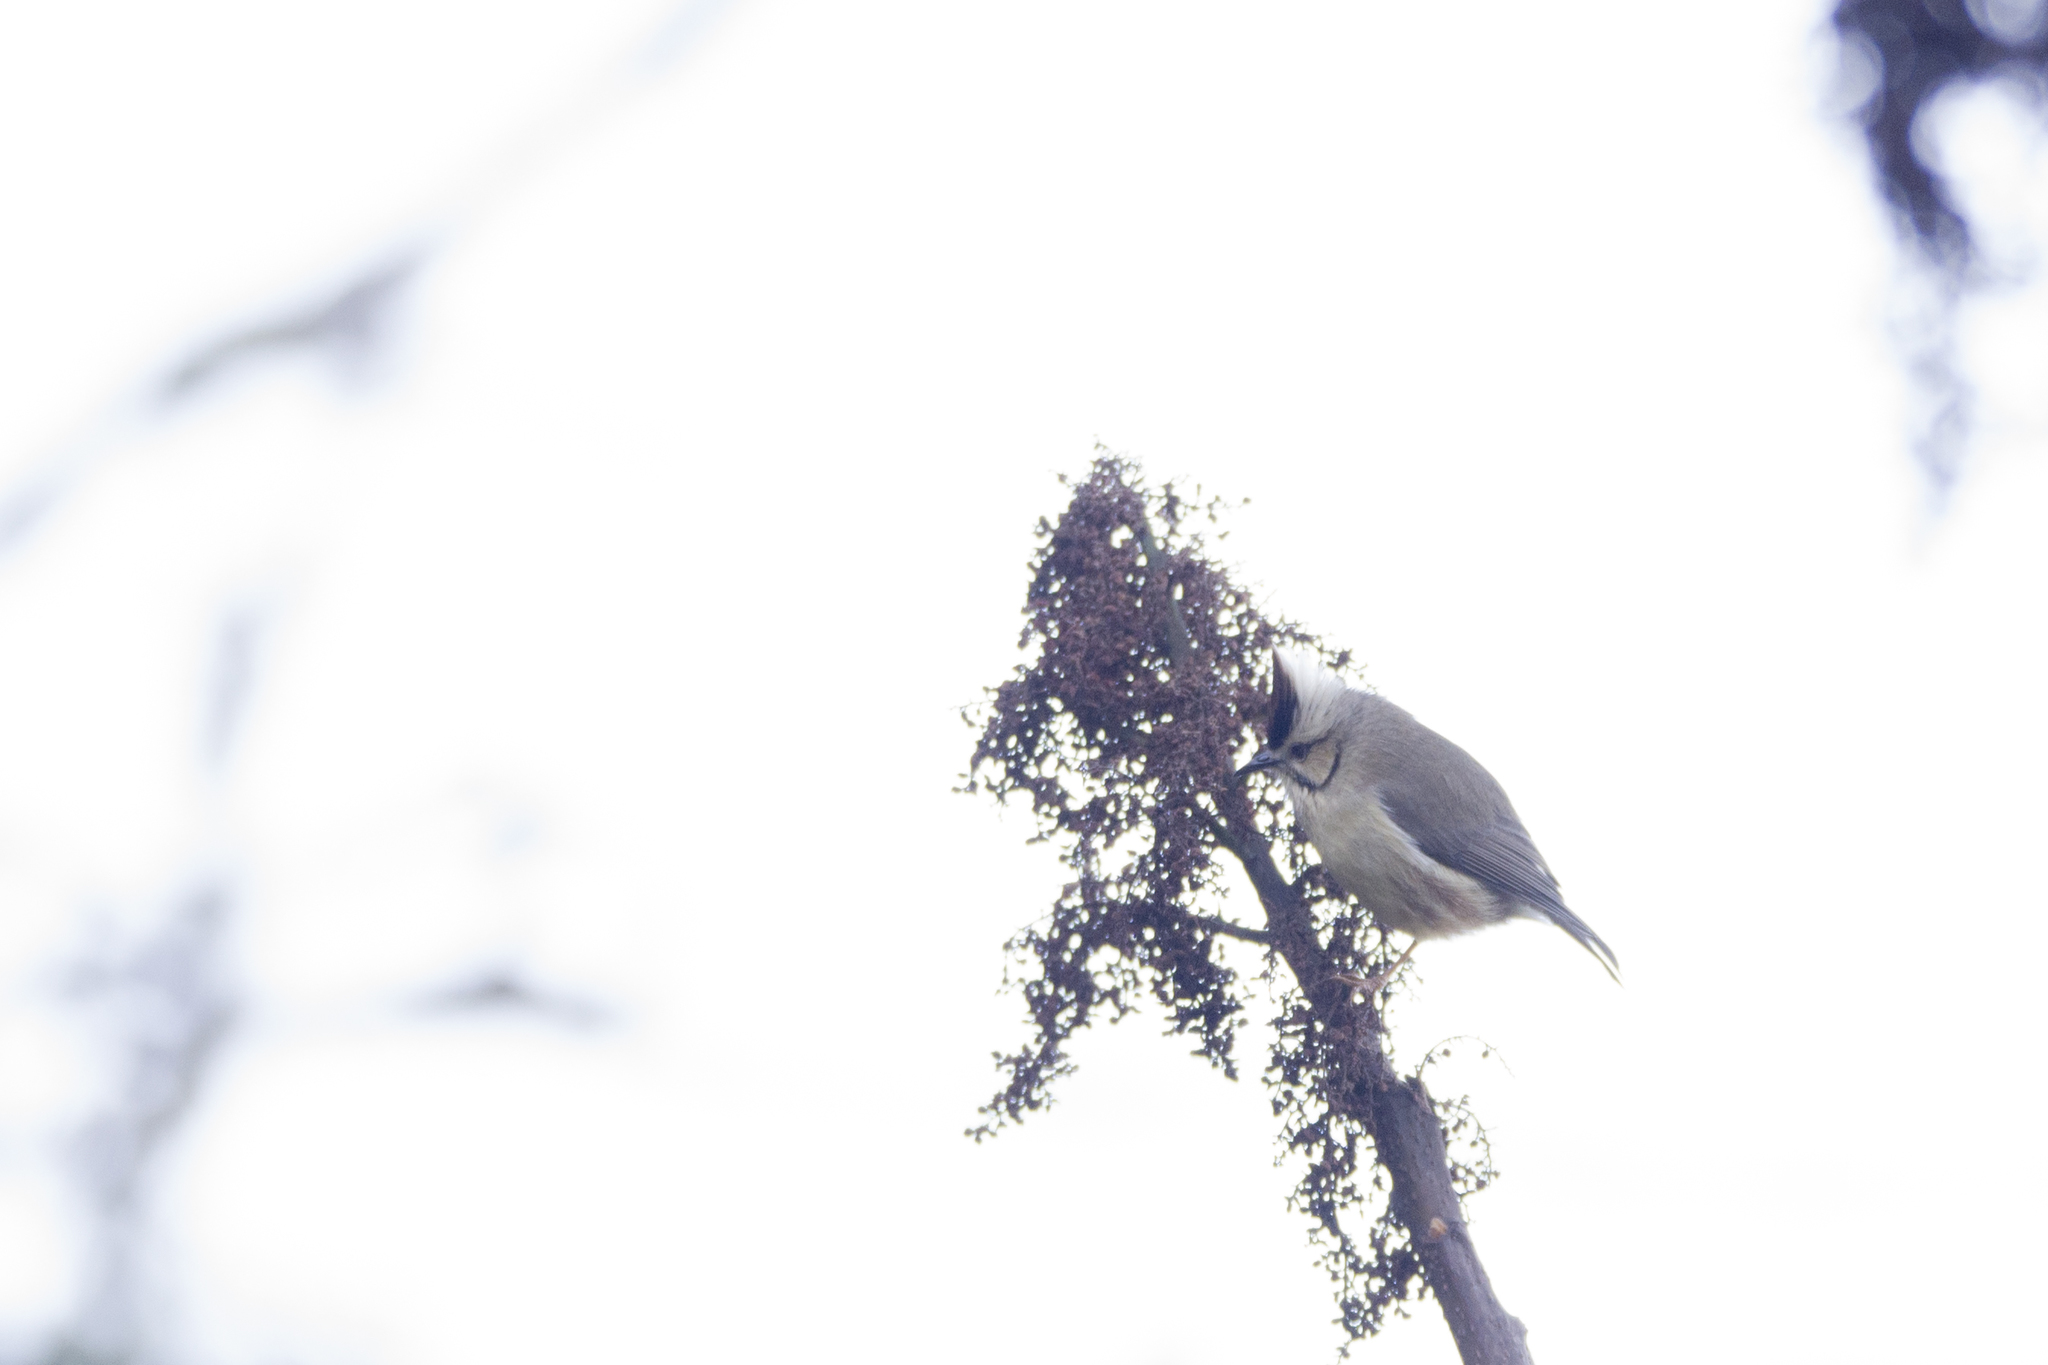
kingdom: Animalia
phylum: Chordata
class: Aves
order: Passeriformes
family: Zosteropidae
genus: Yuhina
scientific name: Yuhina brunneiceps
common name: Taiwan yuhina
